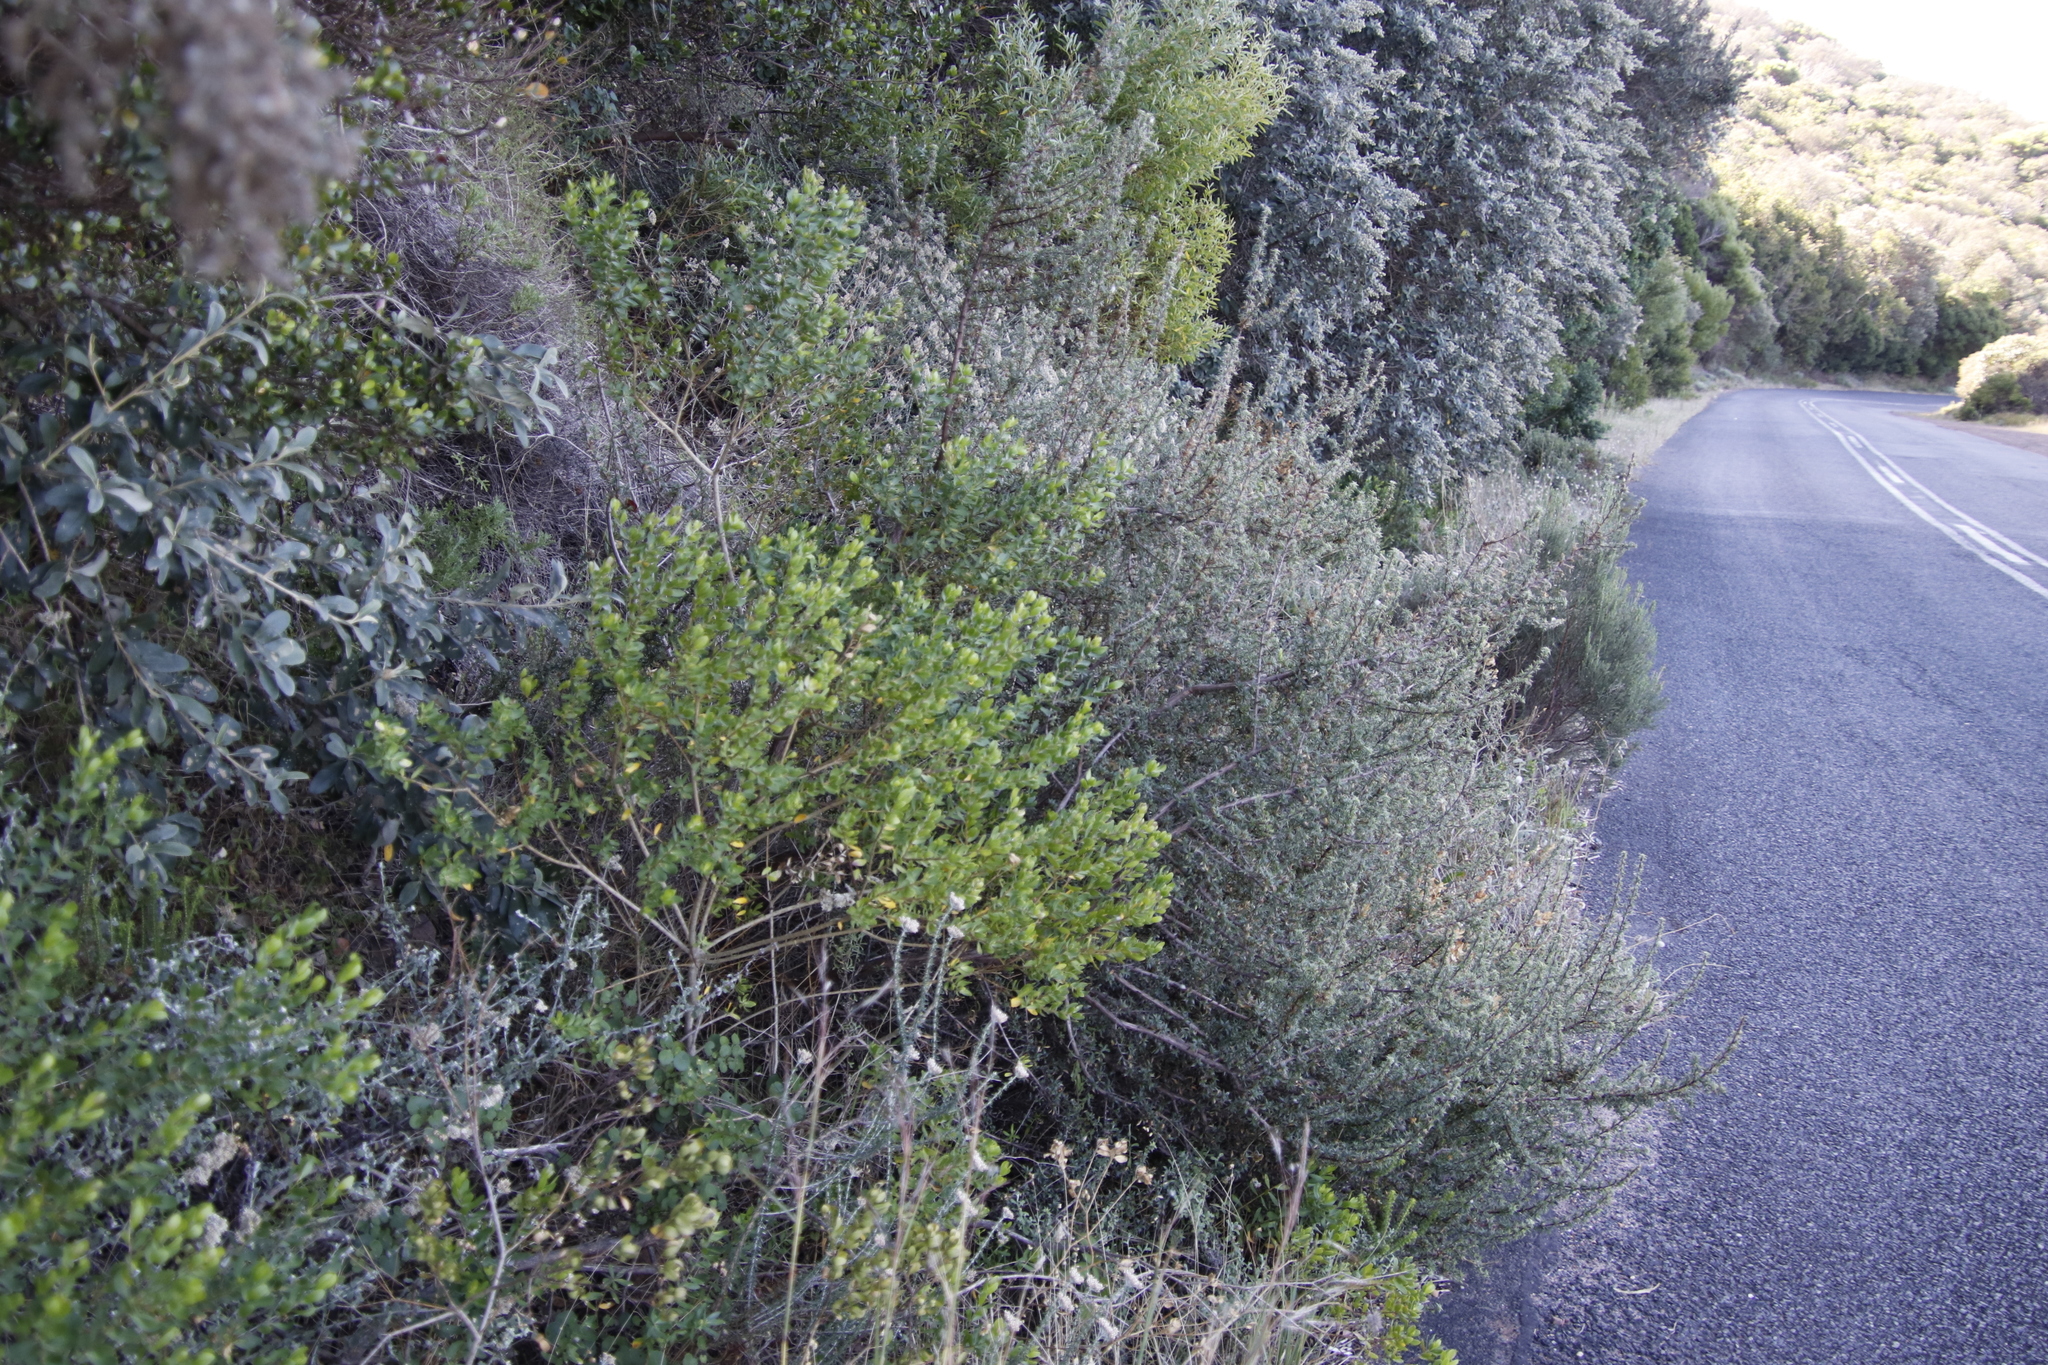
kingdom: Plantae
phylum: Tracheophyta
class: Magnoliopsida
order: Rosales
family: Rosaceae
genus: Cliffortia
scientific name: Cliffortia ruscifolia
